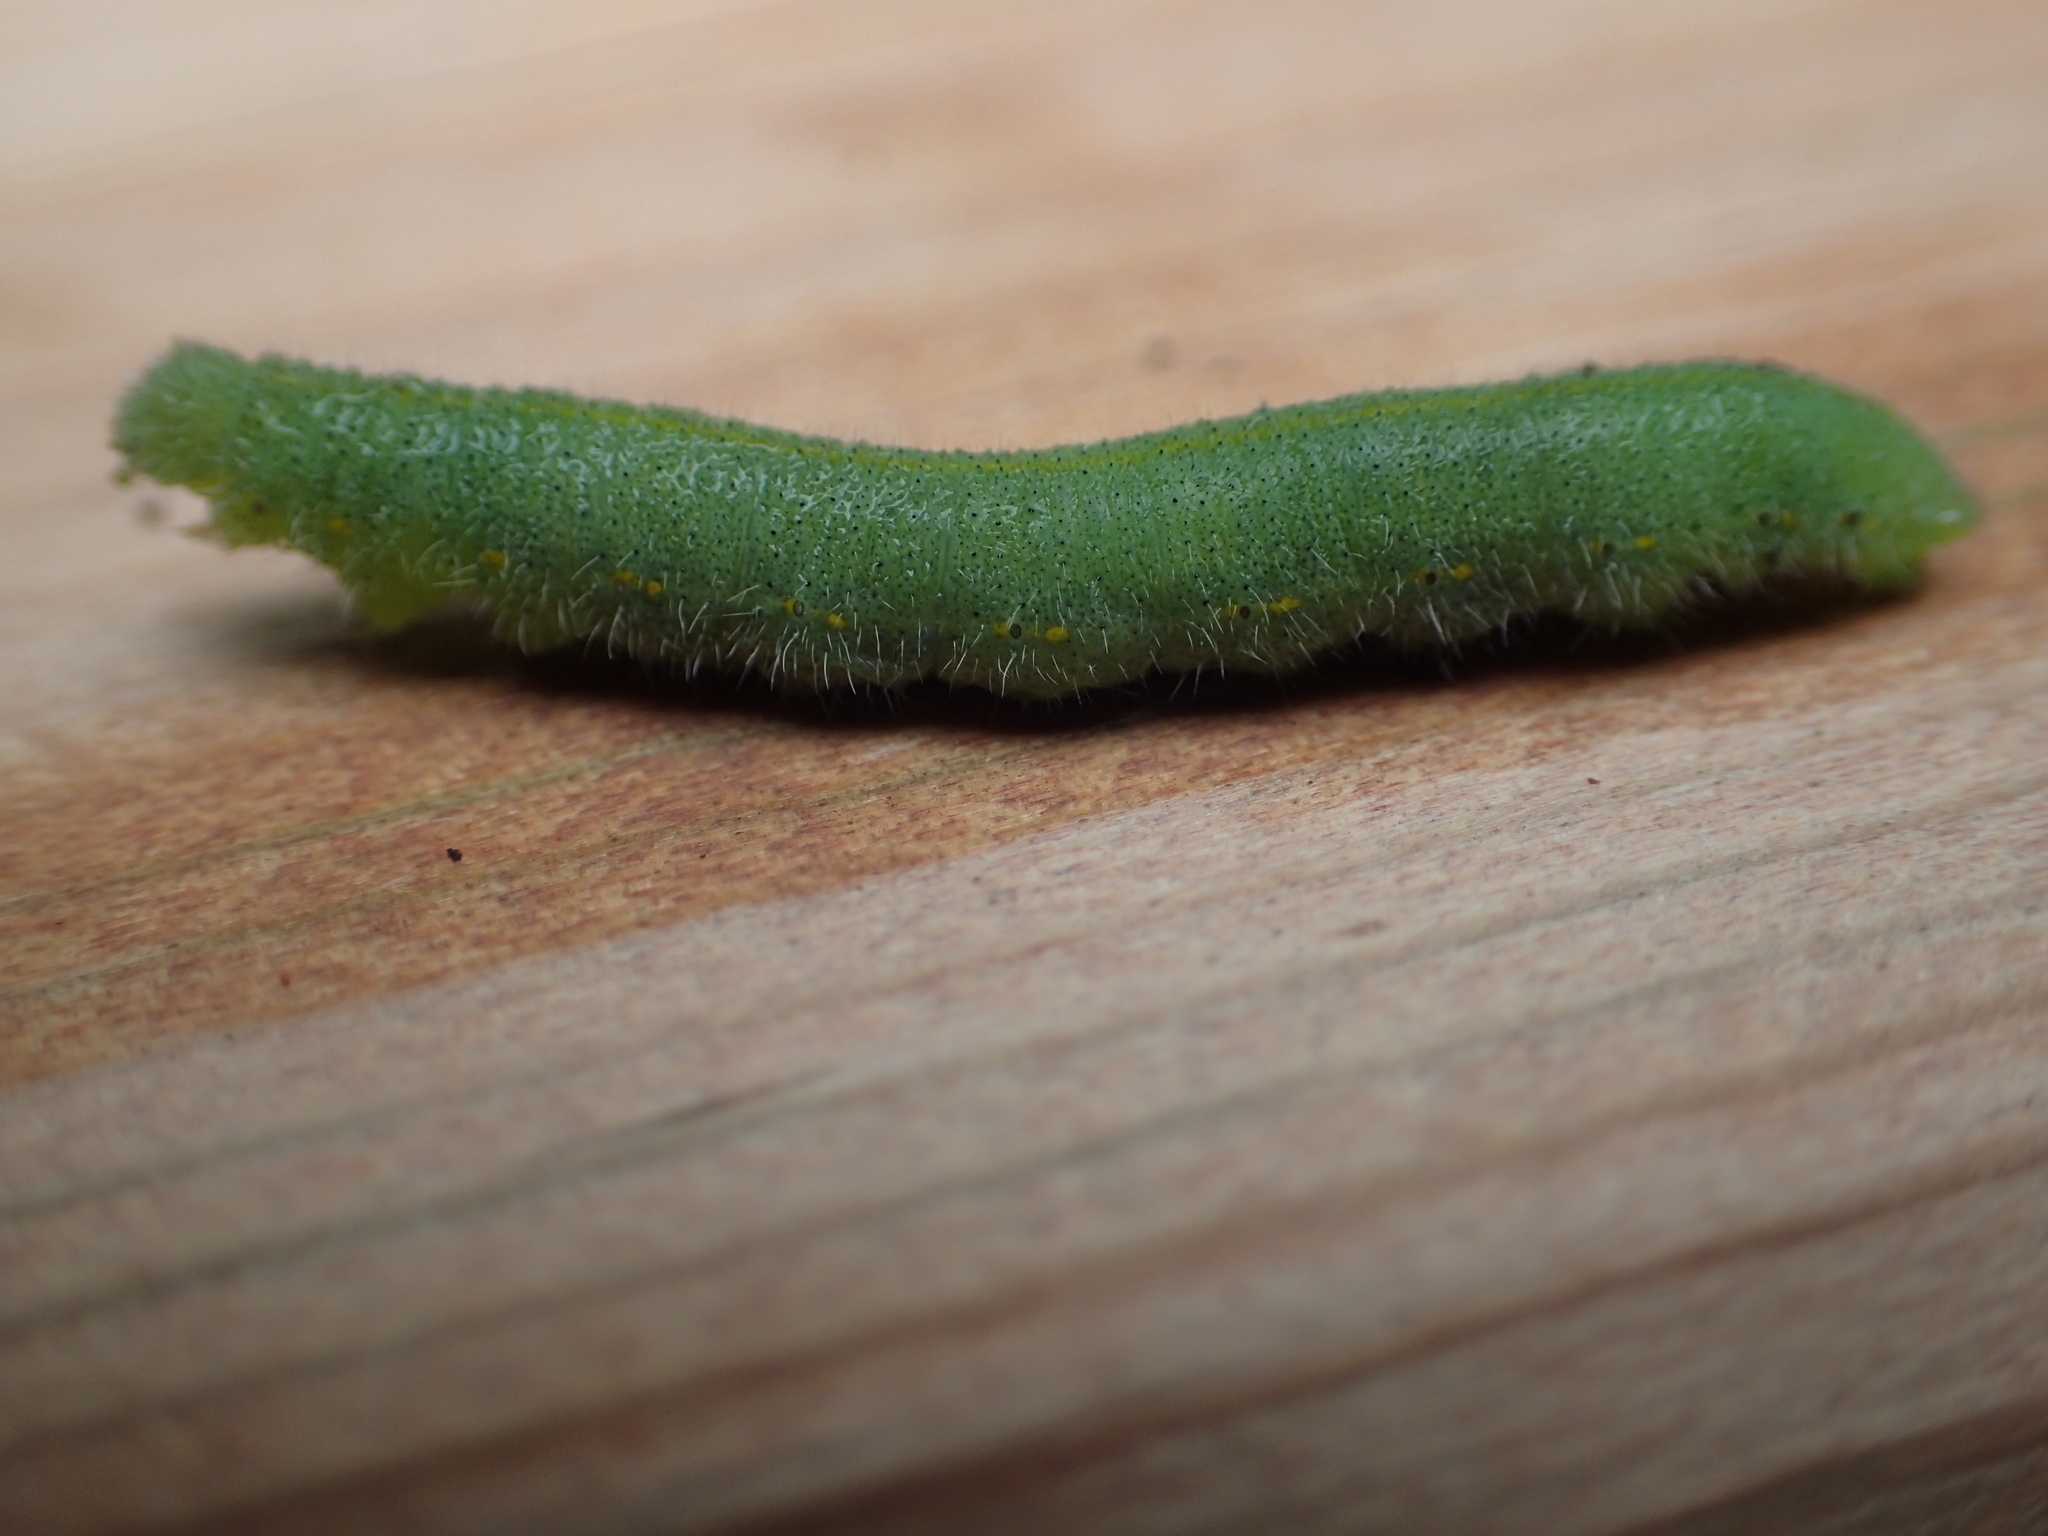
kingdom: Animalia
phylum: Arthropoda
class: Insecta
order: Lepidoptera
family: Pieridae
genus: Pieris
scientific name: Pieris rapae
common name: Small white
